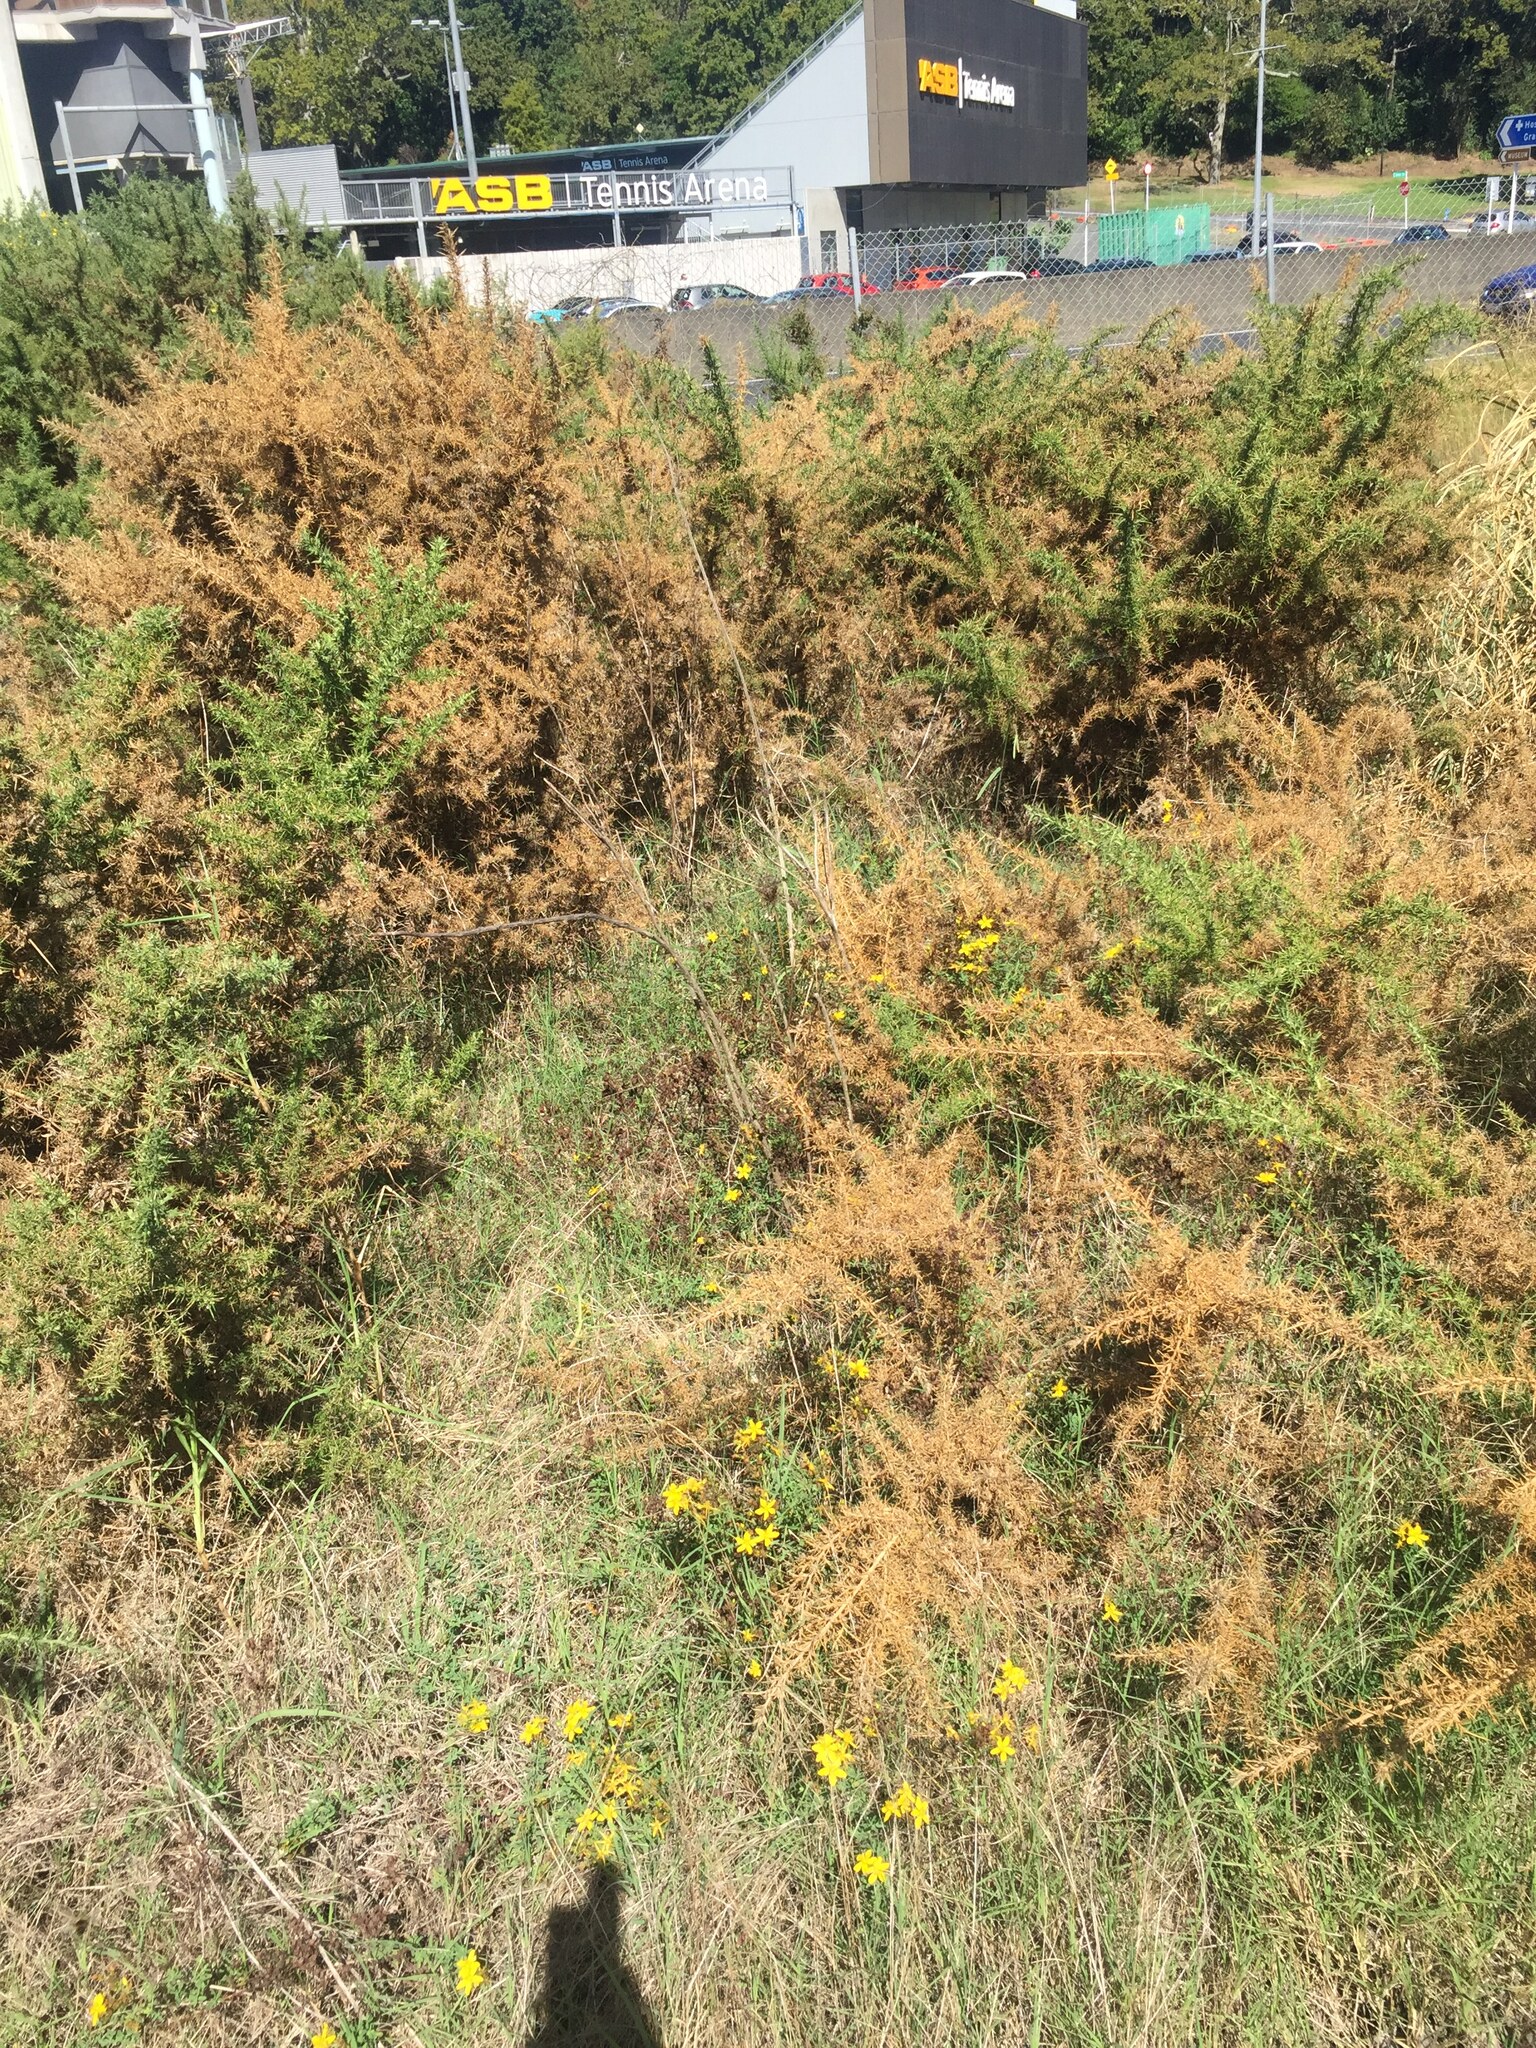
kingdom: Plantae
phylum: Tracheophyta
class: Magnoliopsida
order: Malpighiales
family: Hypericaceae
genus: Hypericum
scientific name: Hypericum perforatum
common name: Common st. johnswort
